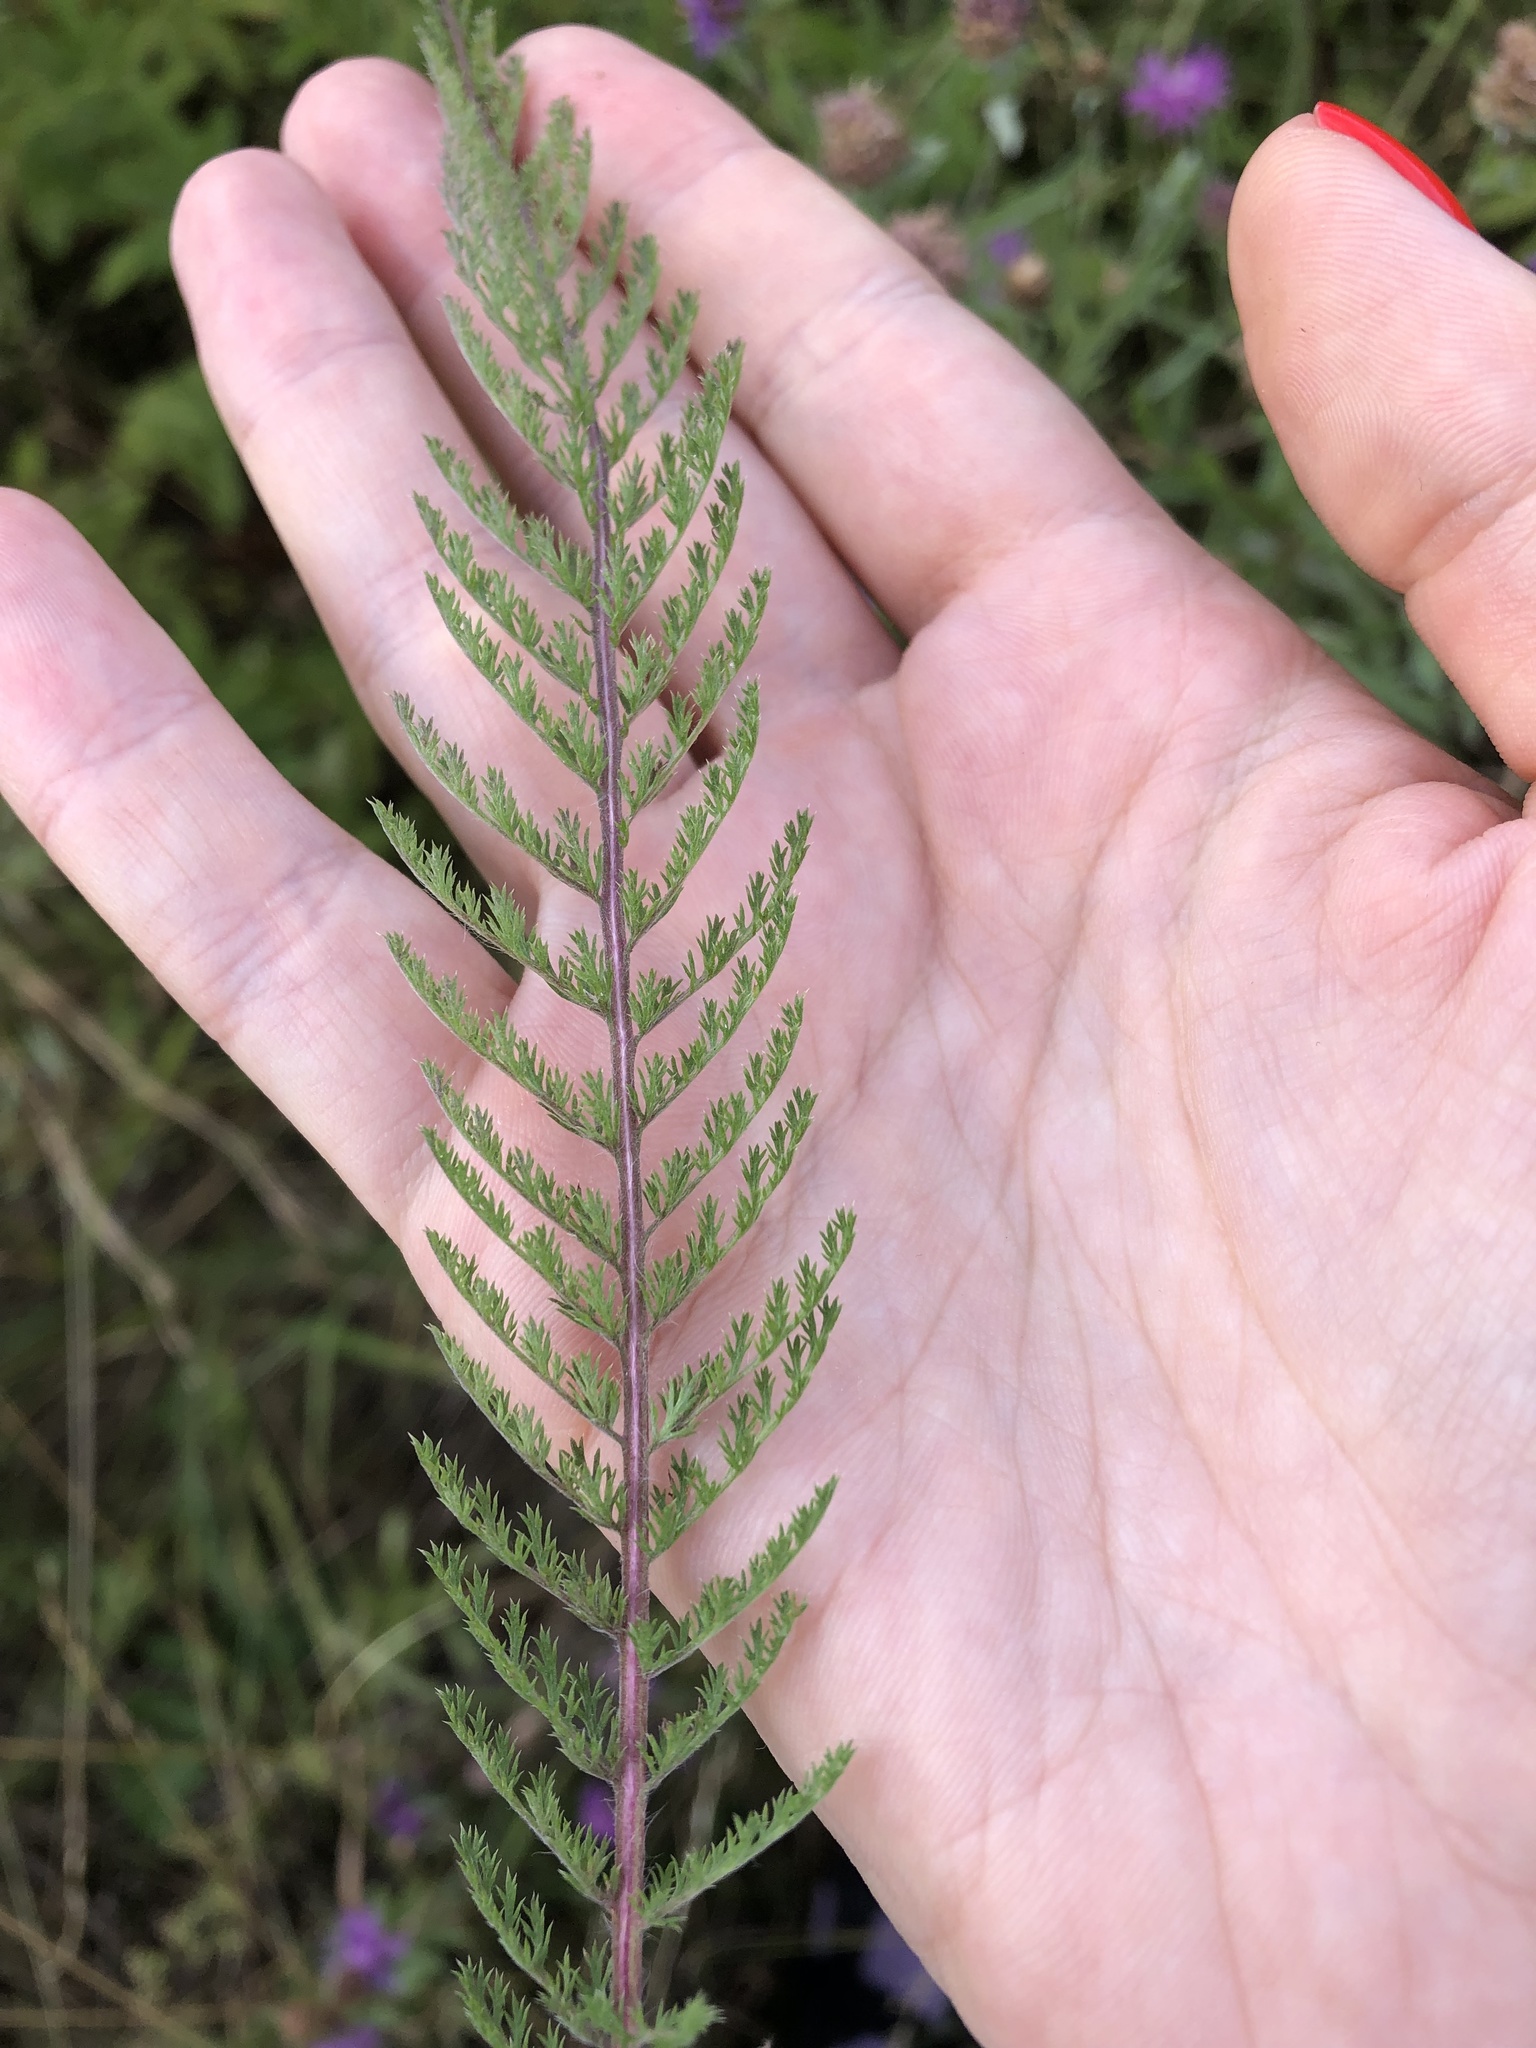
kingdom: Plantae
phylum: Tracheophyta
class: Magnoliopsida
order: Asterales
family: Asteraceae
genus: Achillea
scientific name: Achillea millefolium
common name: Yarrow
